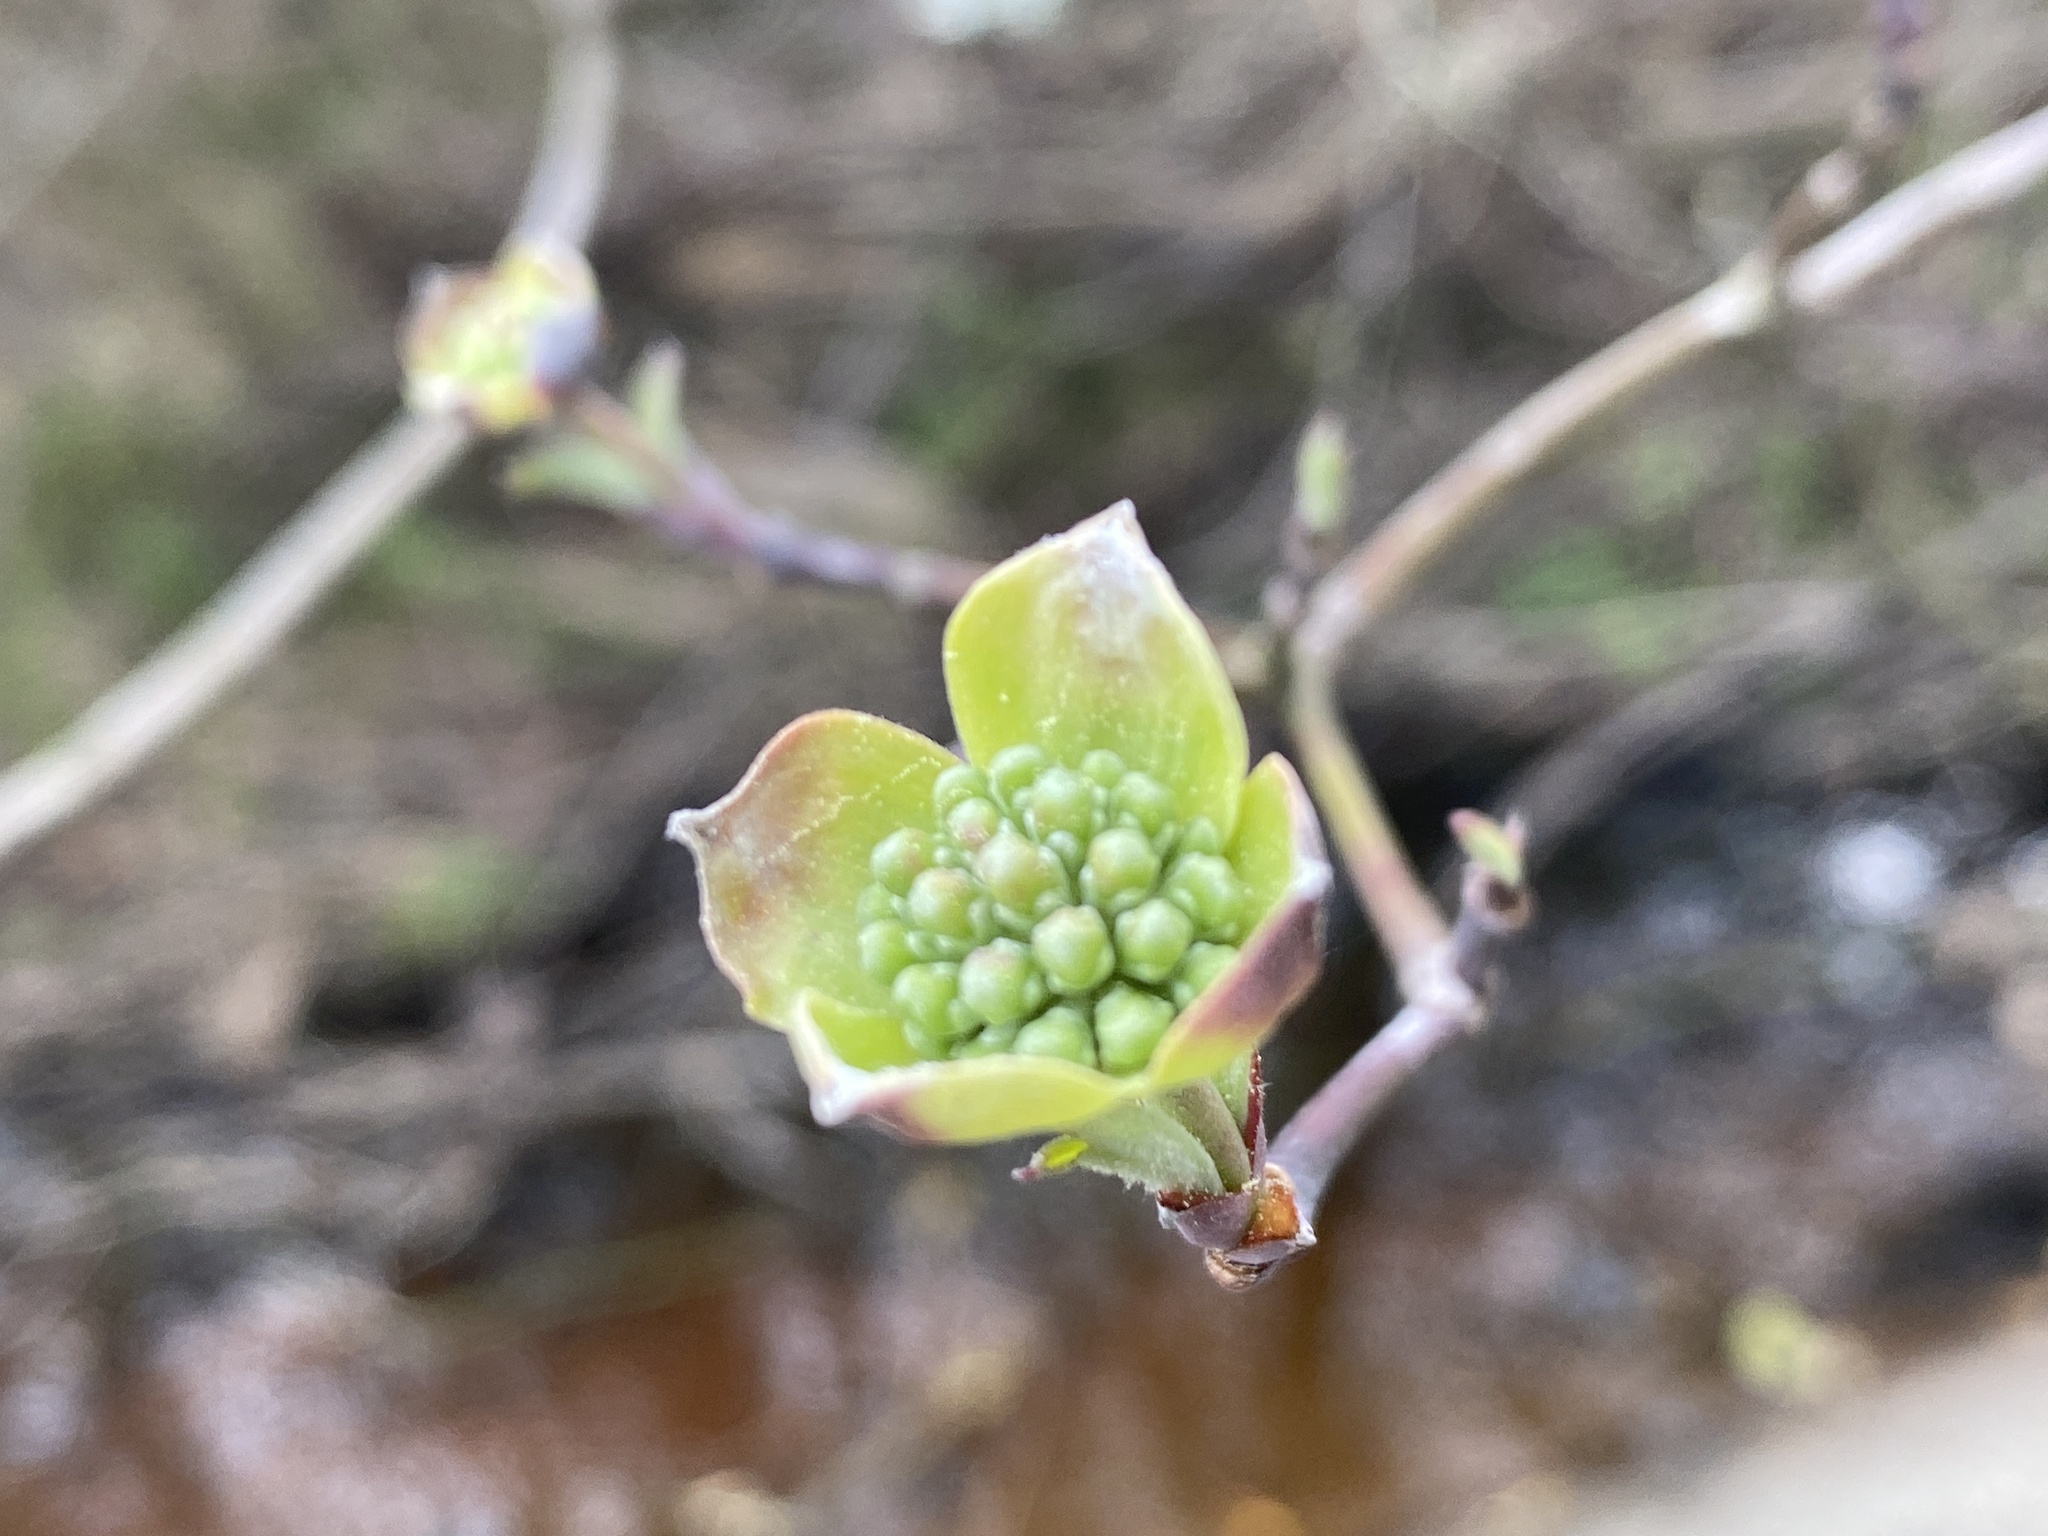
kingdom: Plantae
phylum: Tracheophyta
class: Magnoliopsida
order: Cornales
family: Cornaceae
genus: Cornus
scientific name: Cornus florida
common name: Flowering dogwood
